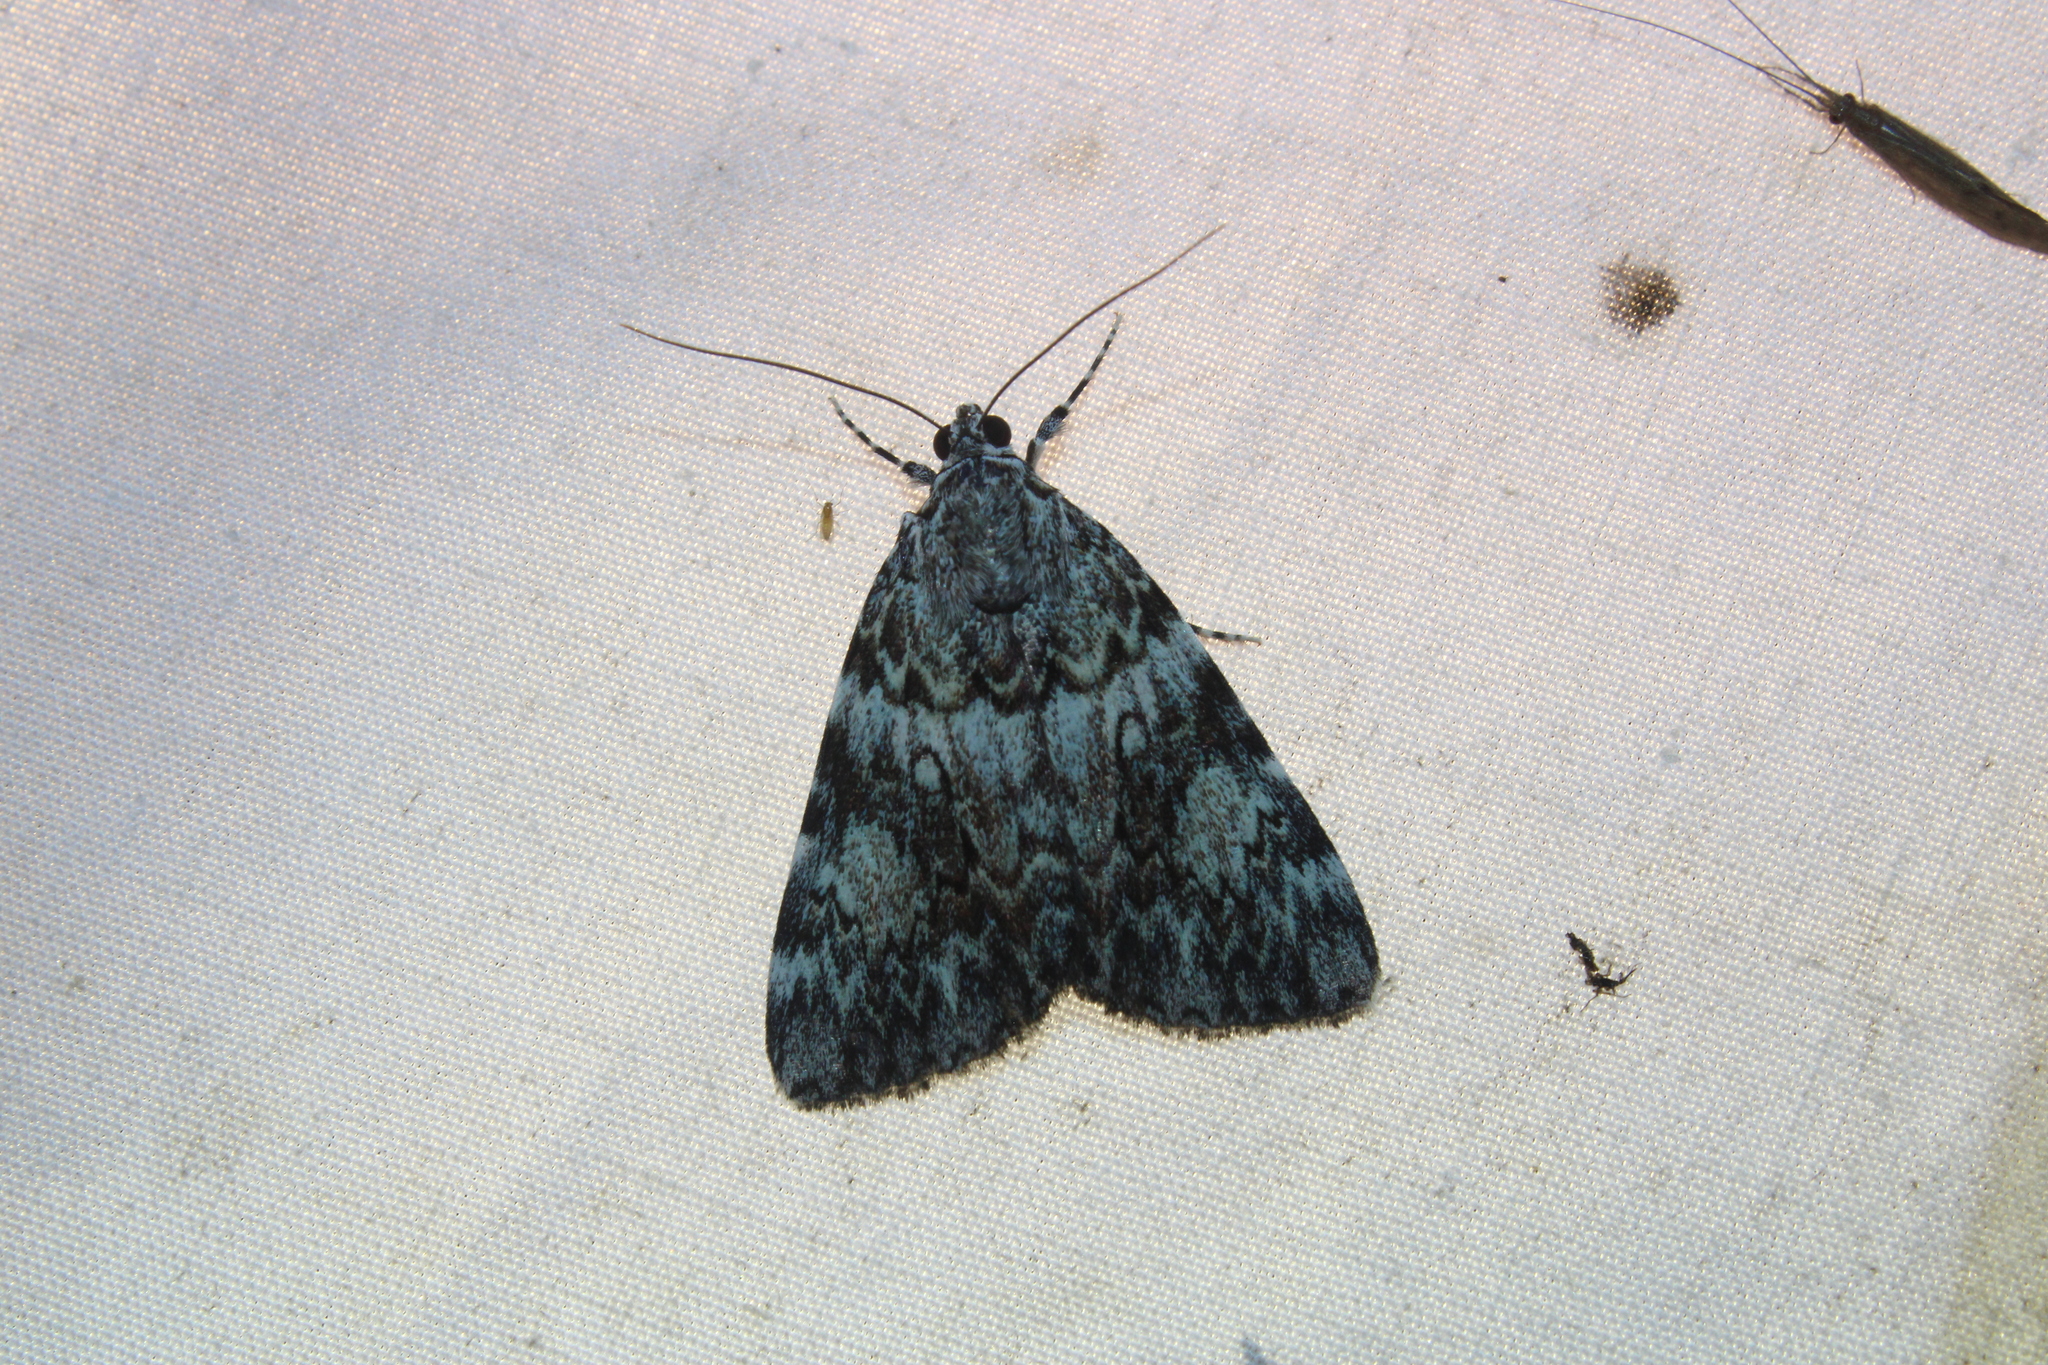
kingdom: Animalia
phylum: Arthropoda
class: Insecta
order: Lepidoptera
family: Erebidae
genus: Catocala
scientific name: Catocala lineella
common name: Little lined underwing
